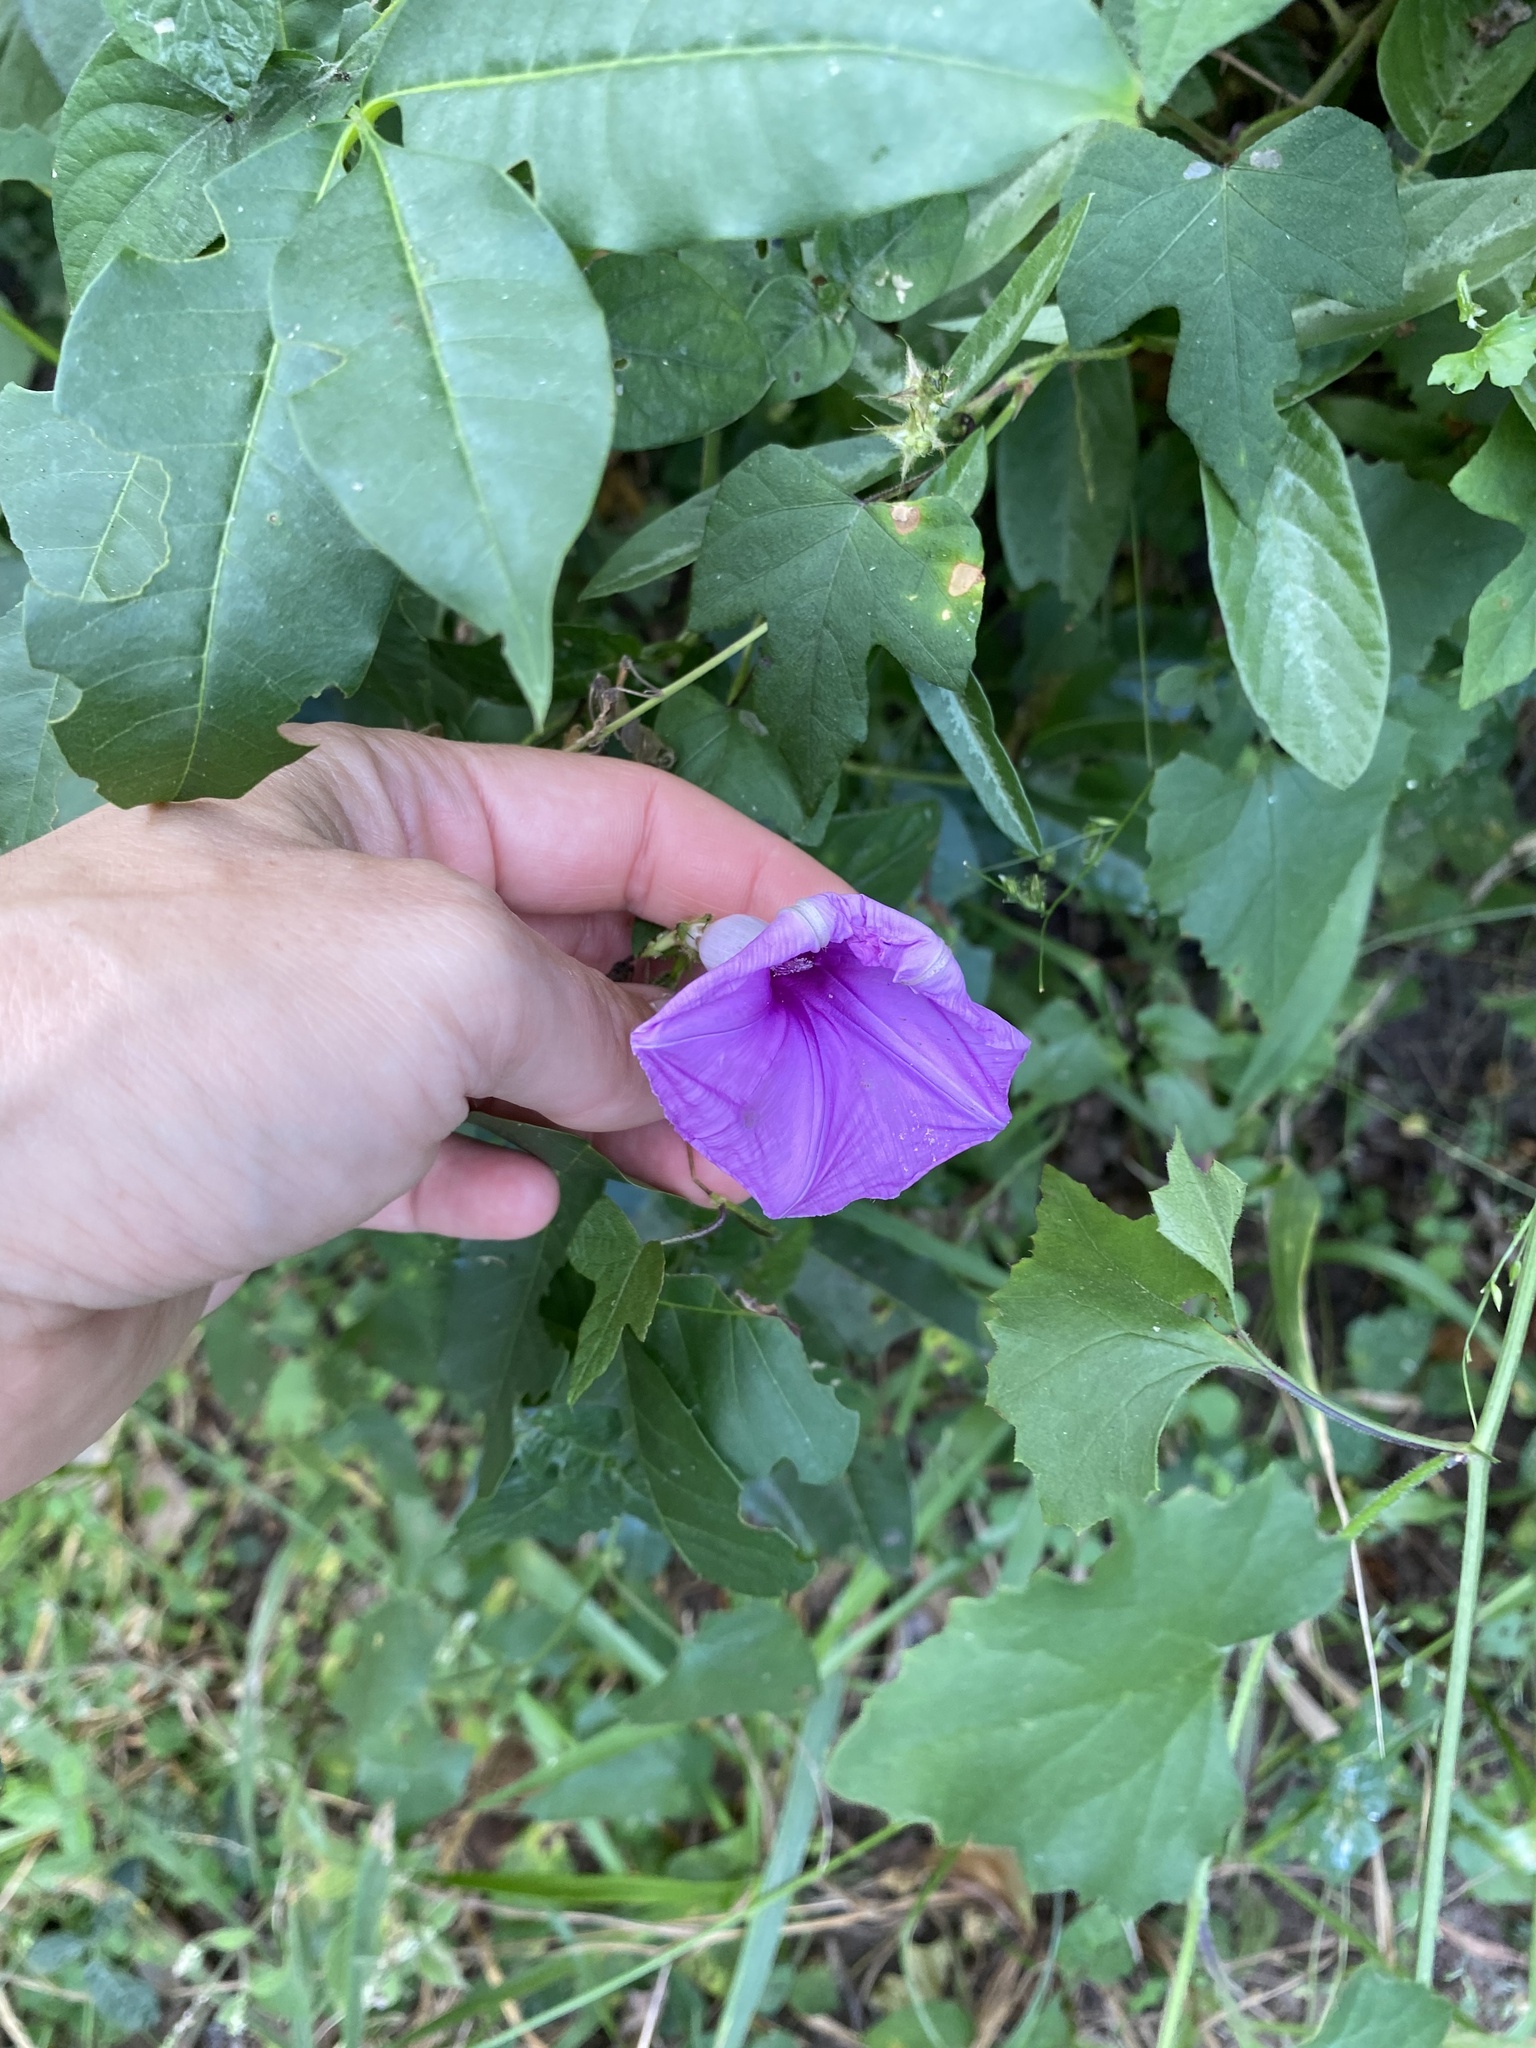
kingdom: Plantae
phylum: Tracheophyta
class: Magnoliopsida
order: Solanales
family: Convolvulaceae
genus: Ipomoea
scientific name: Ipomoea ficifolia
